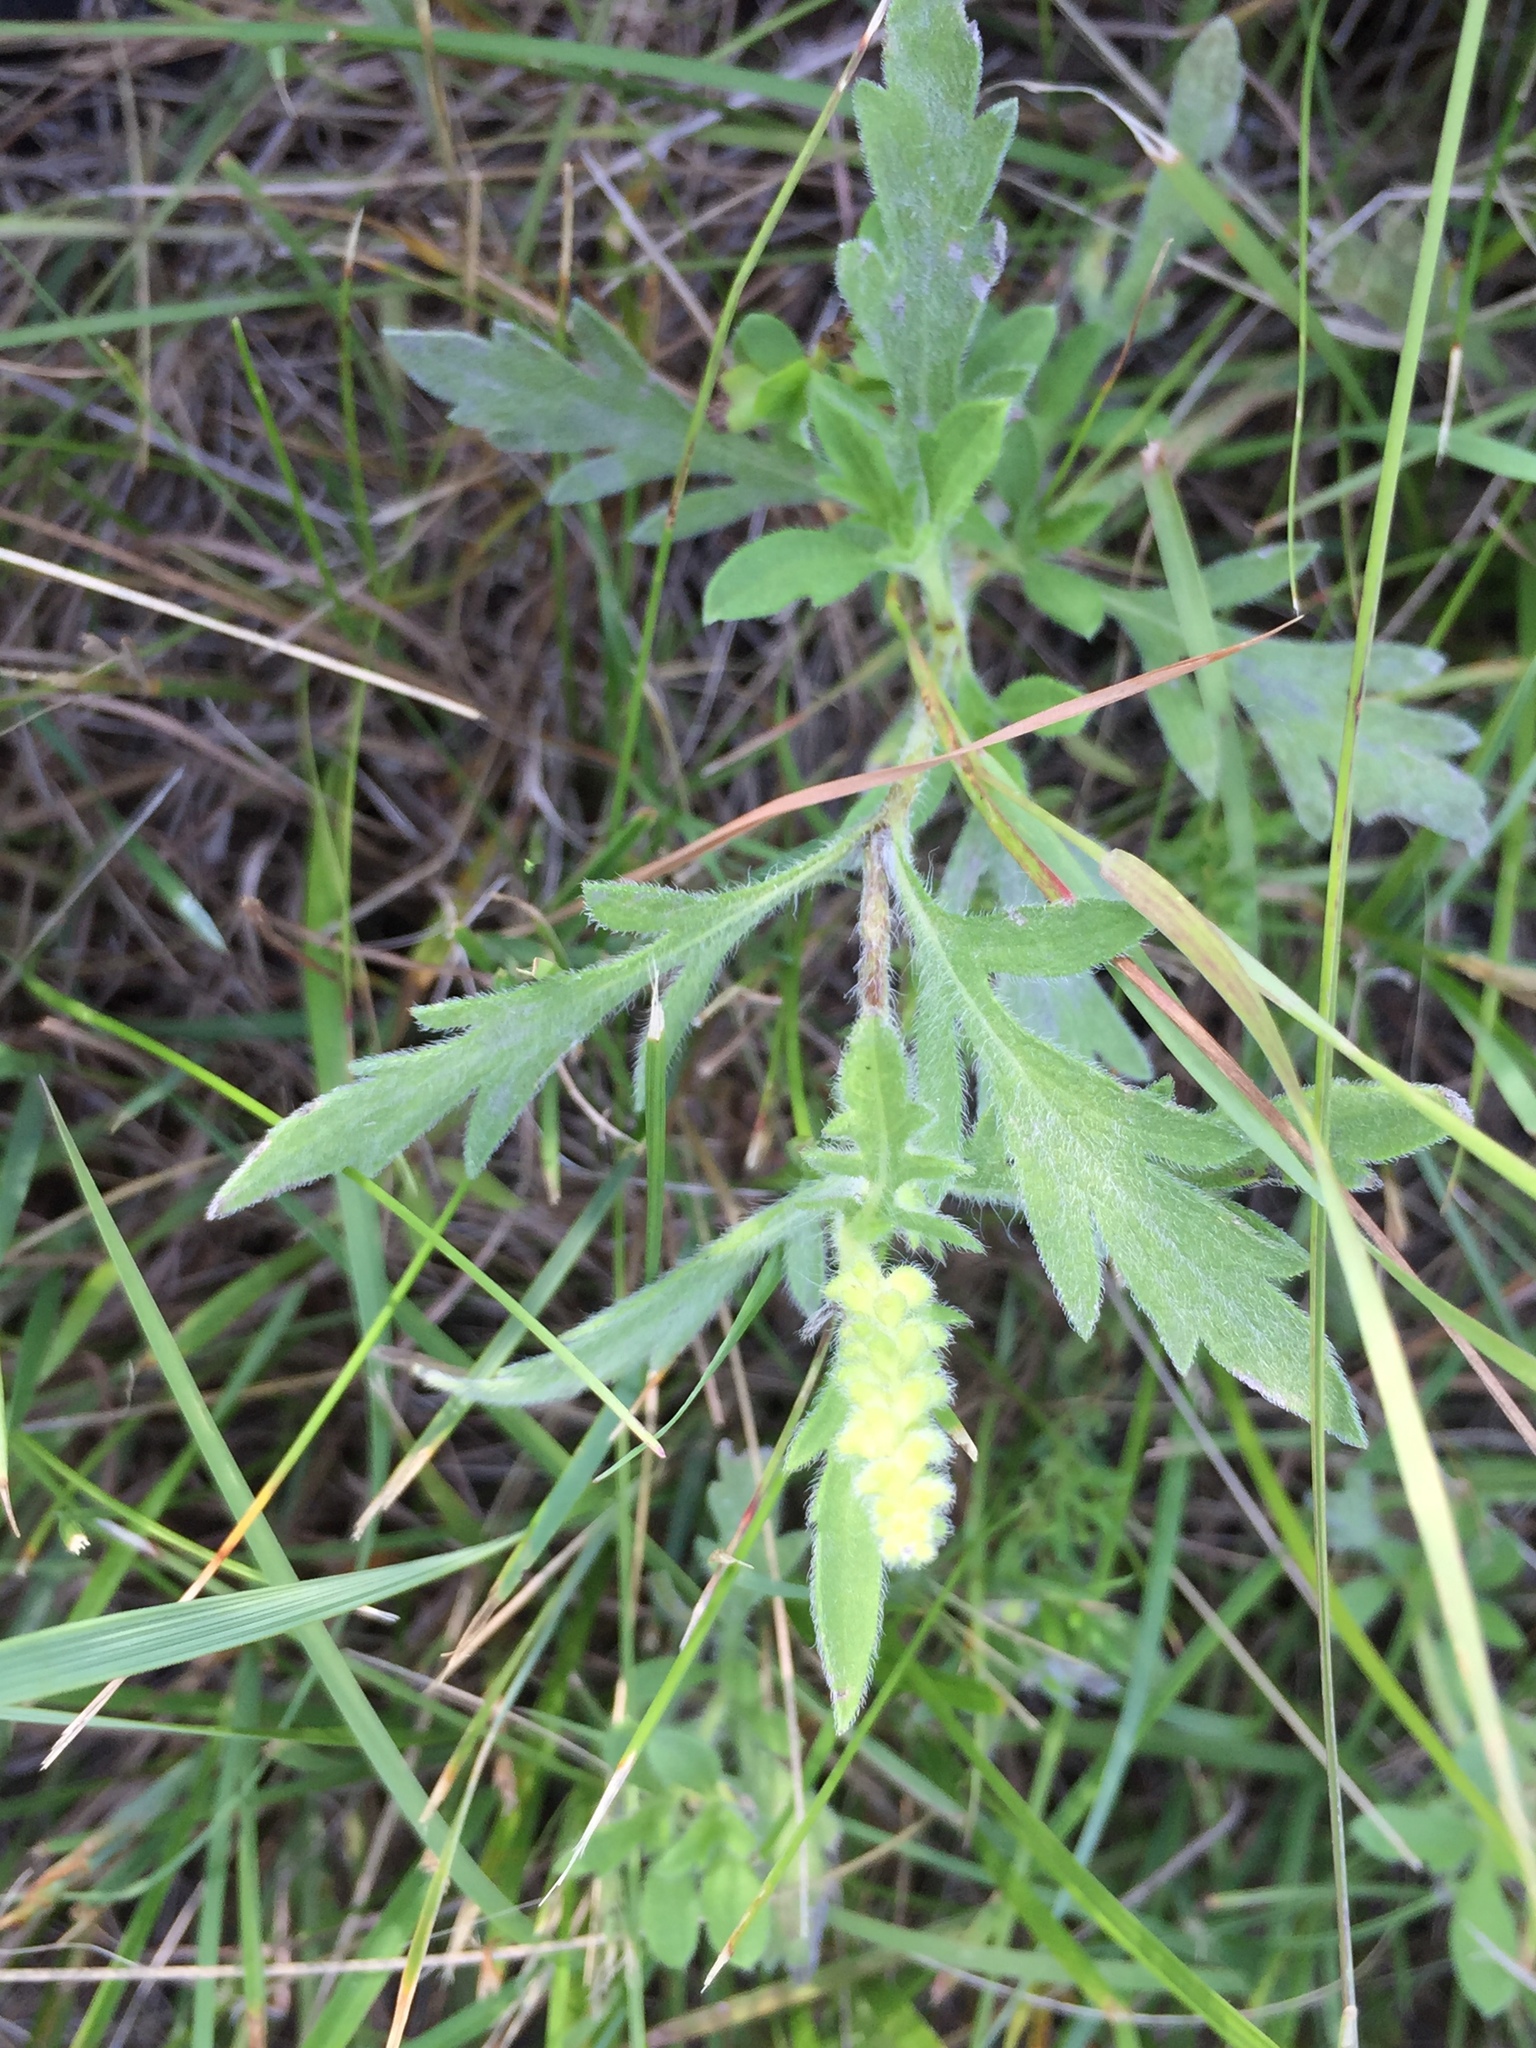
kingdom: Plantae
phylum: Tracheophyta
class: Magnoliopsida
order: Asterales
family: Asteraceae
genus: Ambrosia
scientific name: Ambrosia psilostachya
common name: Perennial ragweed
